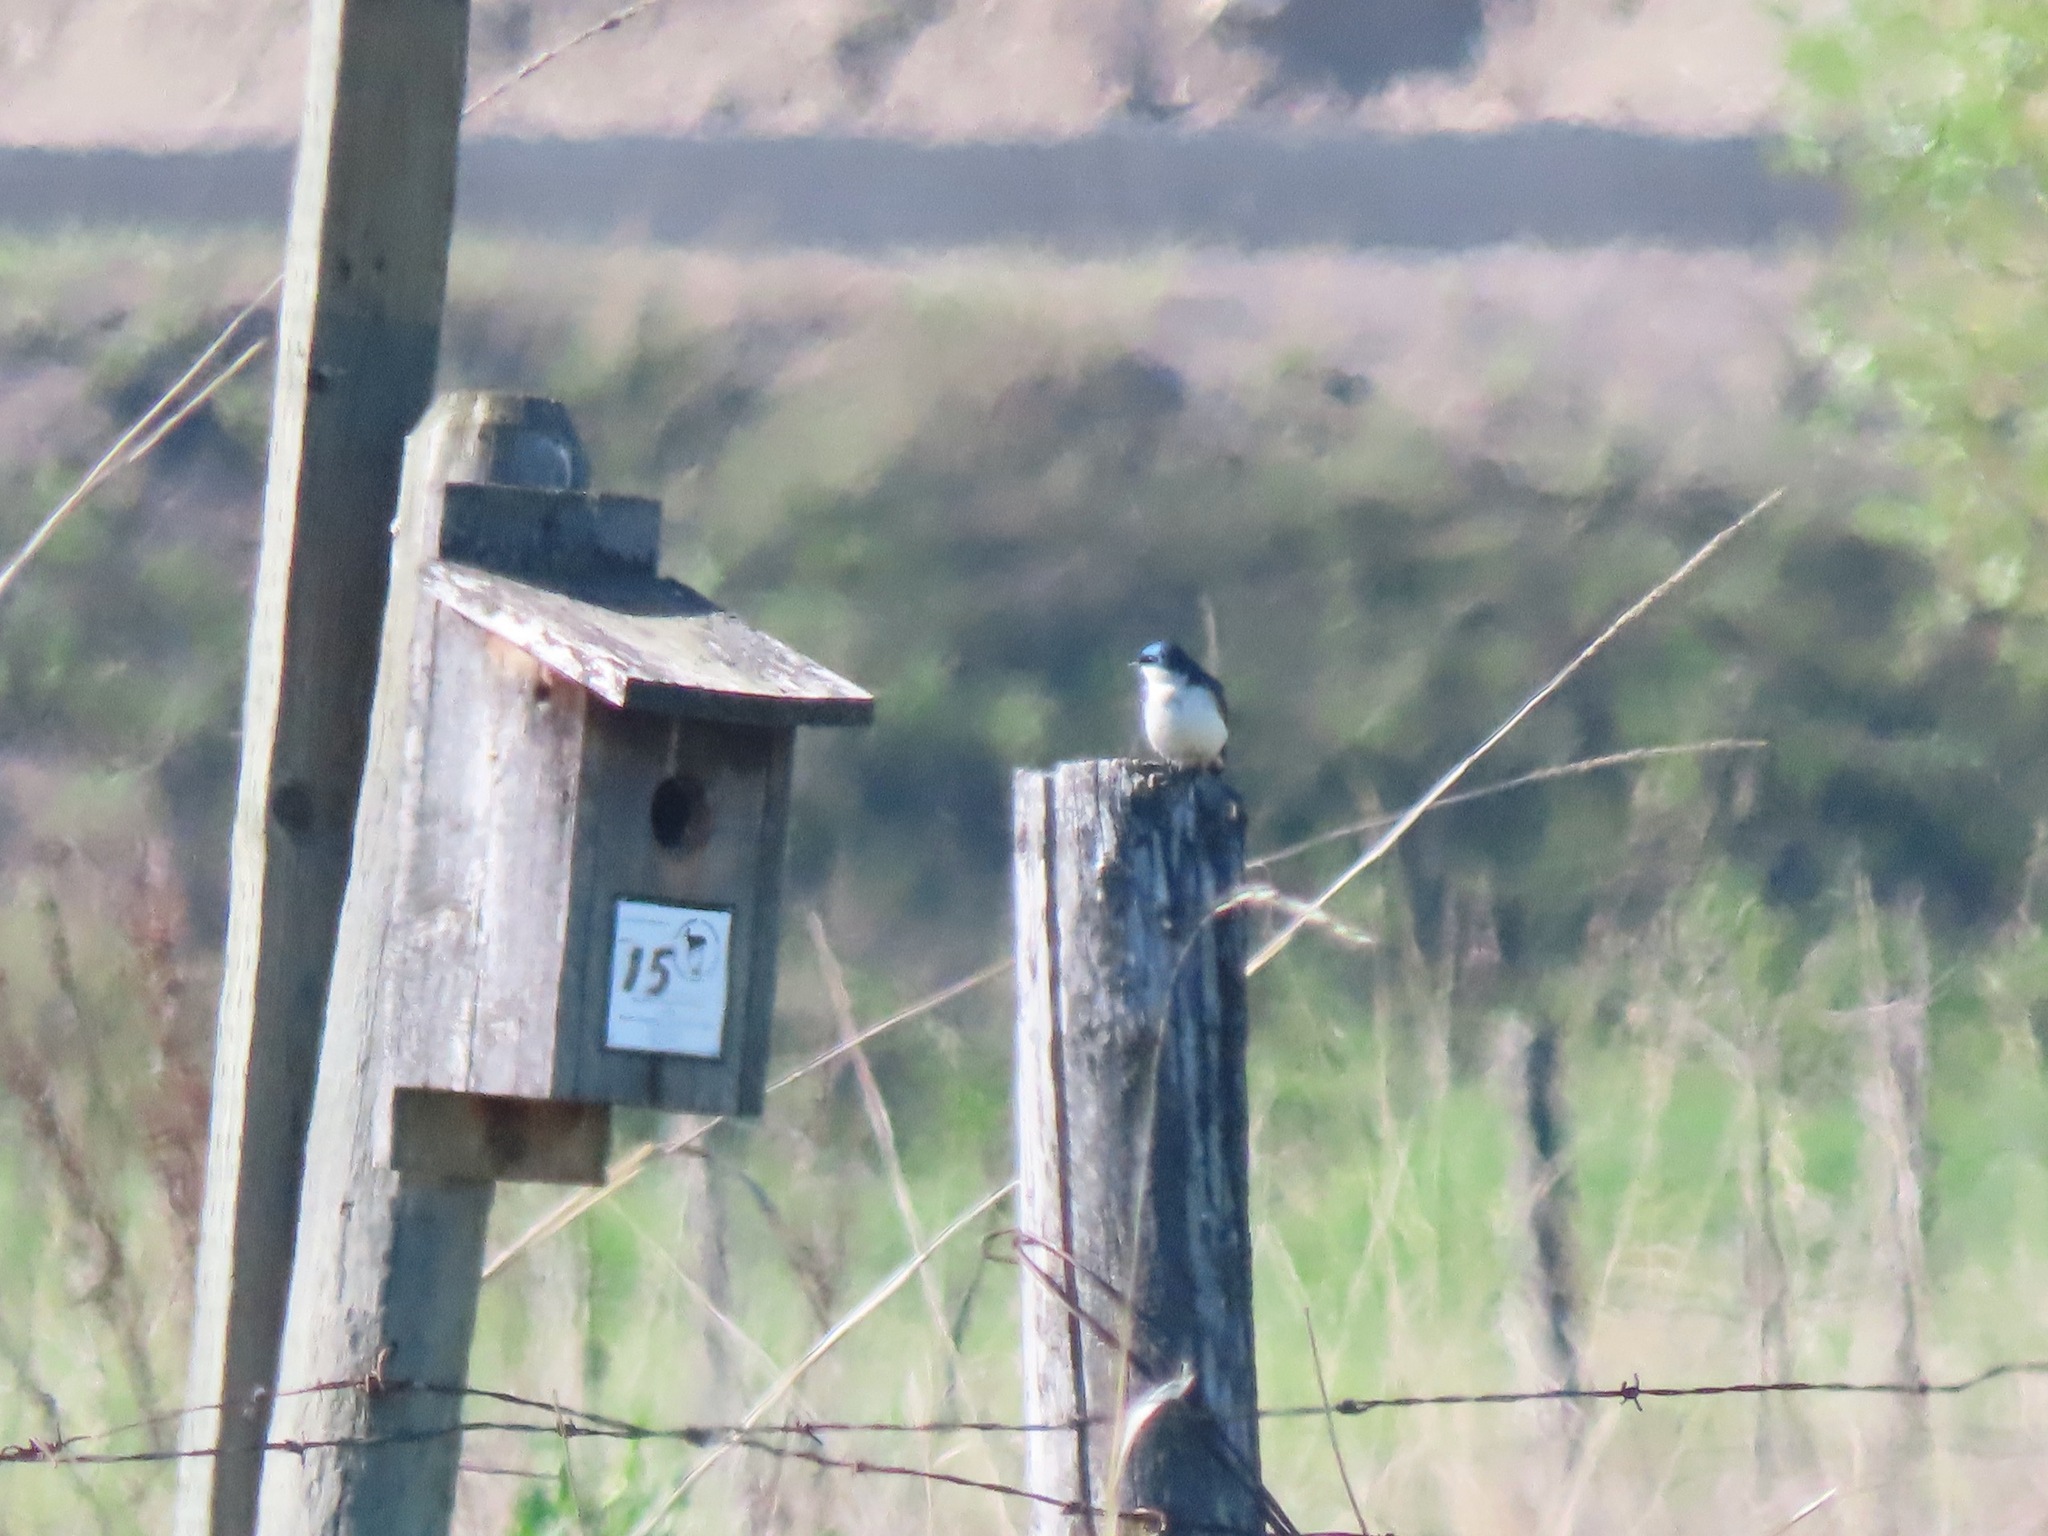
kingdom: Animalia
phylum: Chordata
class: Aves
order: Passeriformes
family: Hirundinidae
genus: Tachycineta
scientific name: Tachycineta bicolor
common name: Tree swallow
